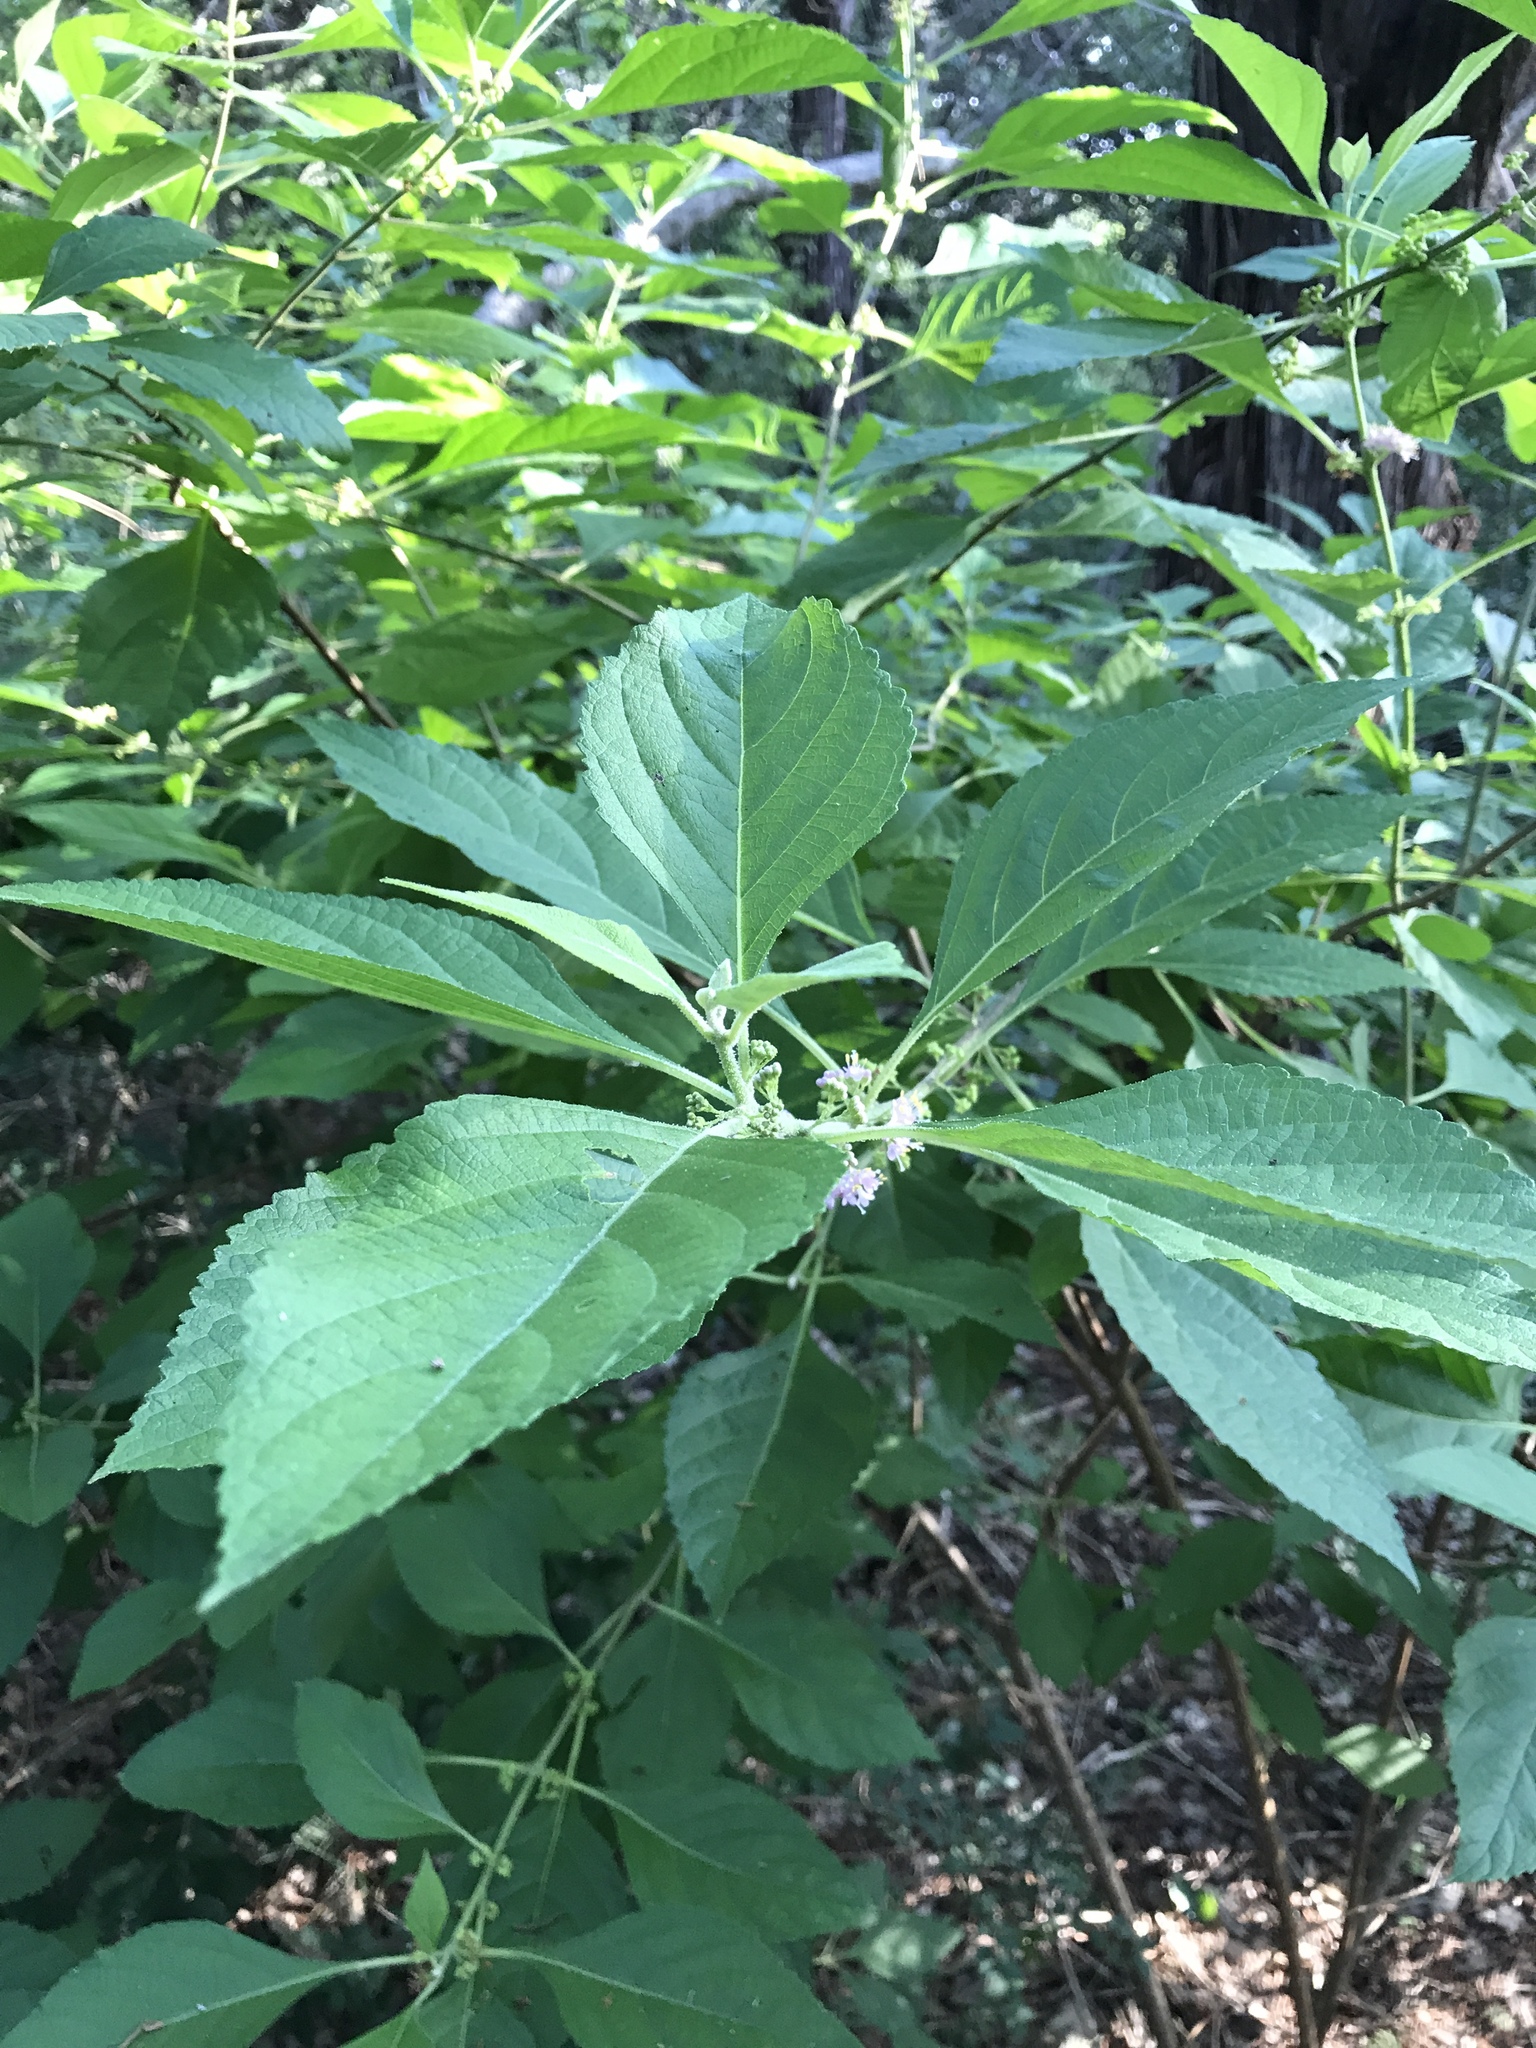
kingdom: Plantae
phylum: Tracheophyta
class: Magnoliopsida
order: Lamiales
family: Lamiaceae
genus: Callicarpa
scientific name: Callicarpa americana
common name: American beautyberry
